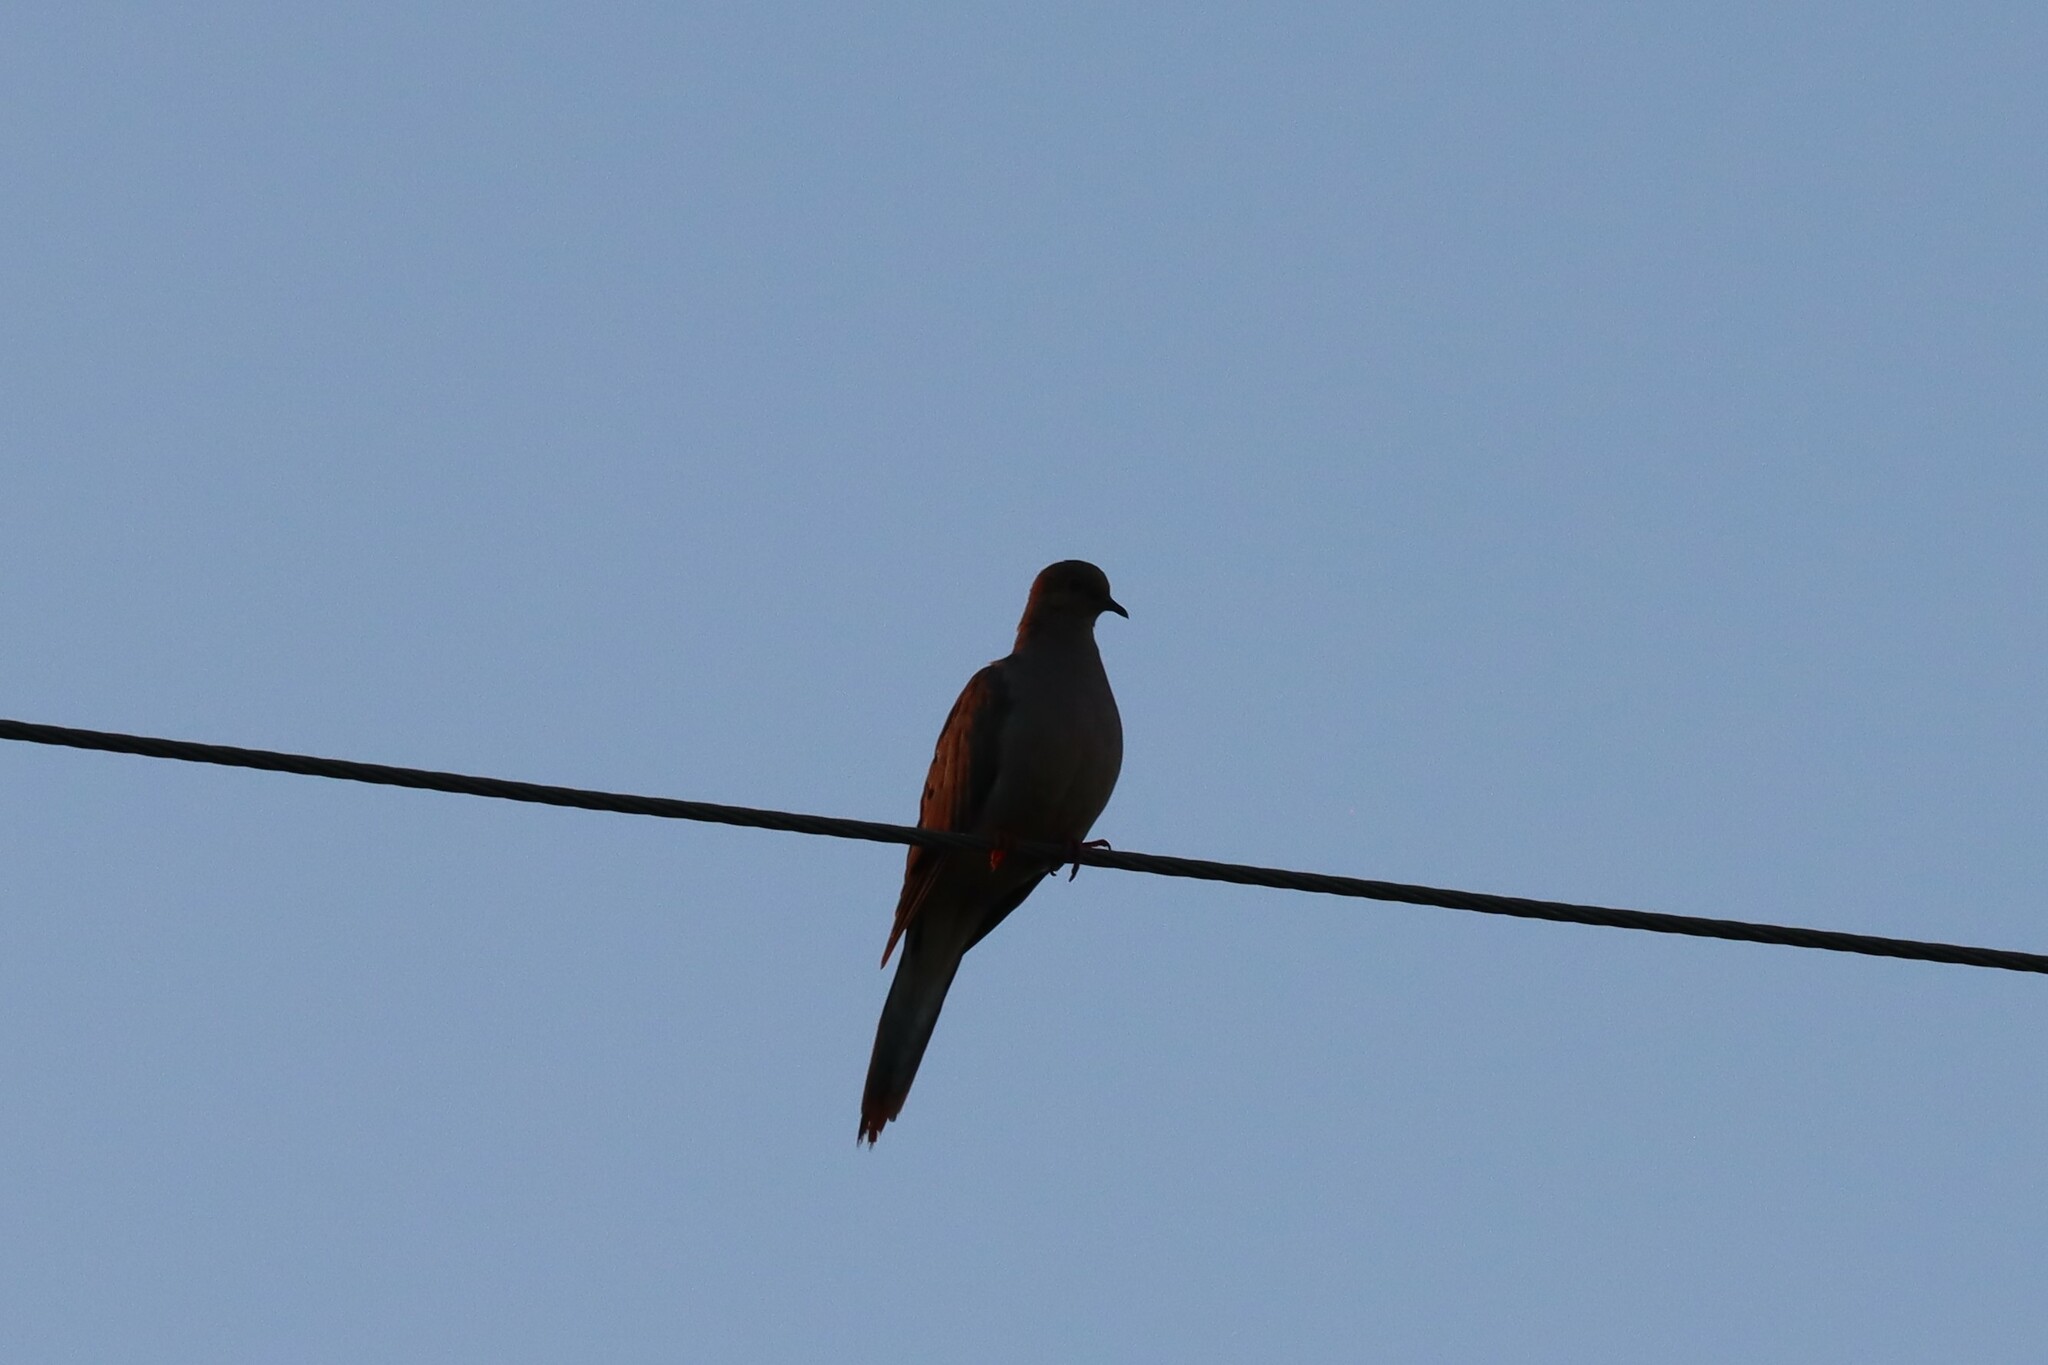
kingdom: Animalia
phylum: Chordata
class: Aves
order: Columbiformes
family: Columbidae
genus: Zenaida
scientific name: Zenaida macroura
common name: Mourning dove
